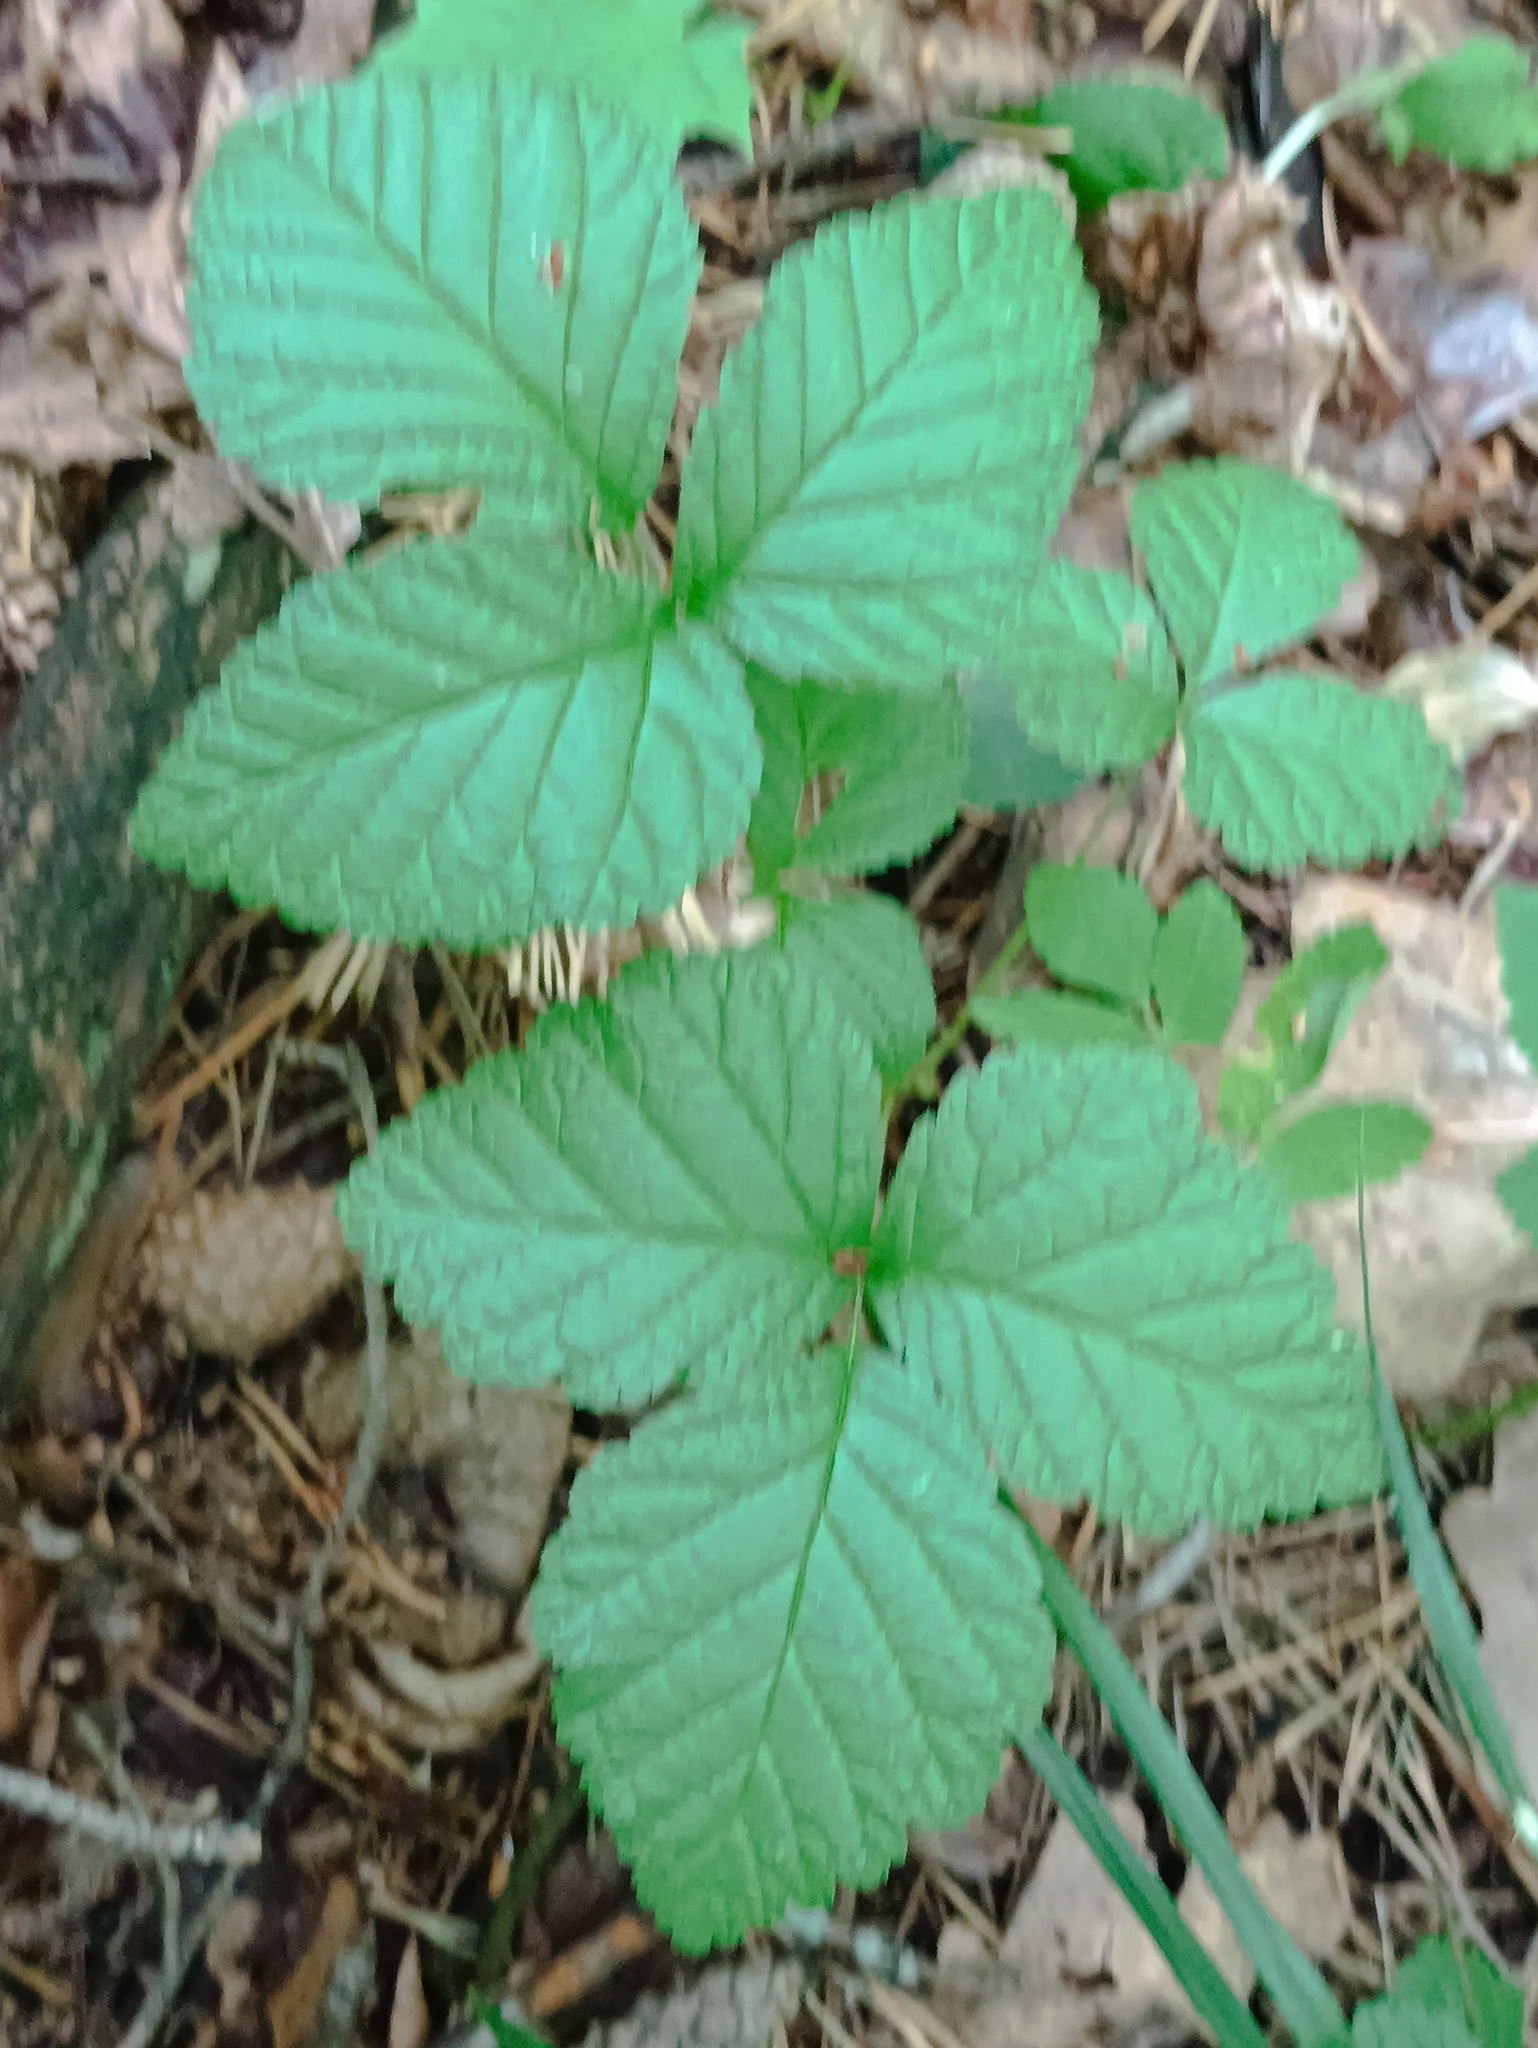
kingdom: Plantae
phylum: Tracheophyta
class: Magnoliopsida
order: Rosales
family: Rosaceae
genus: Rubus
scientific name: Rubus saxatilis
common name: Stone bramble
